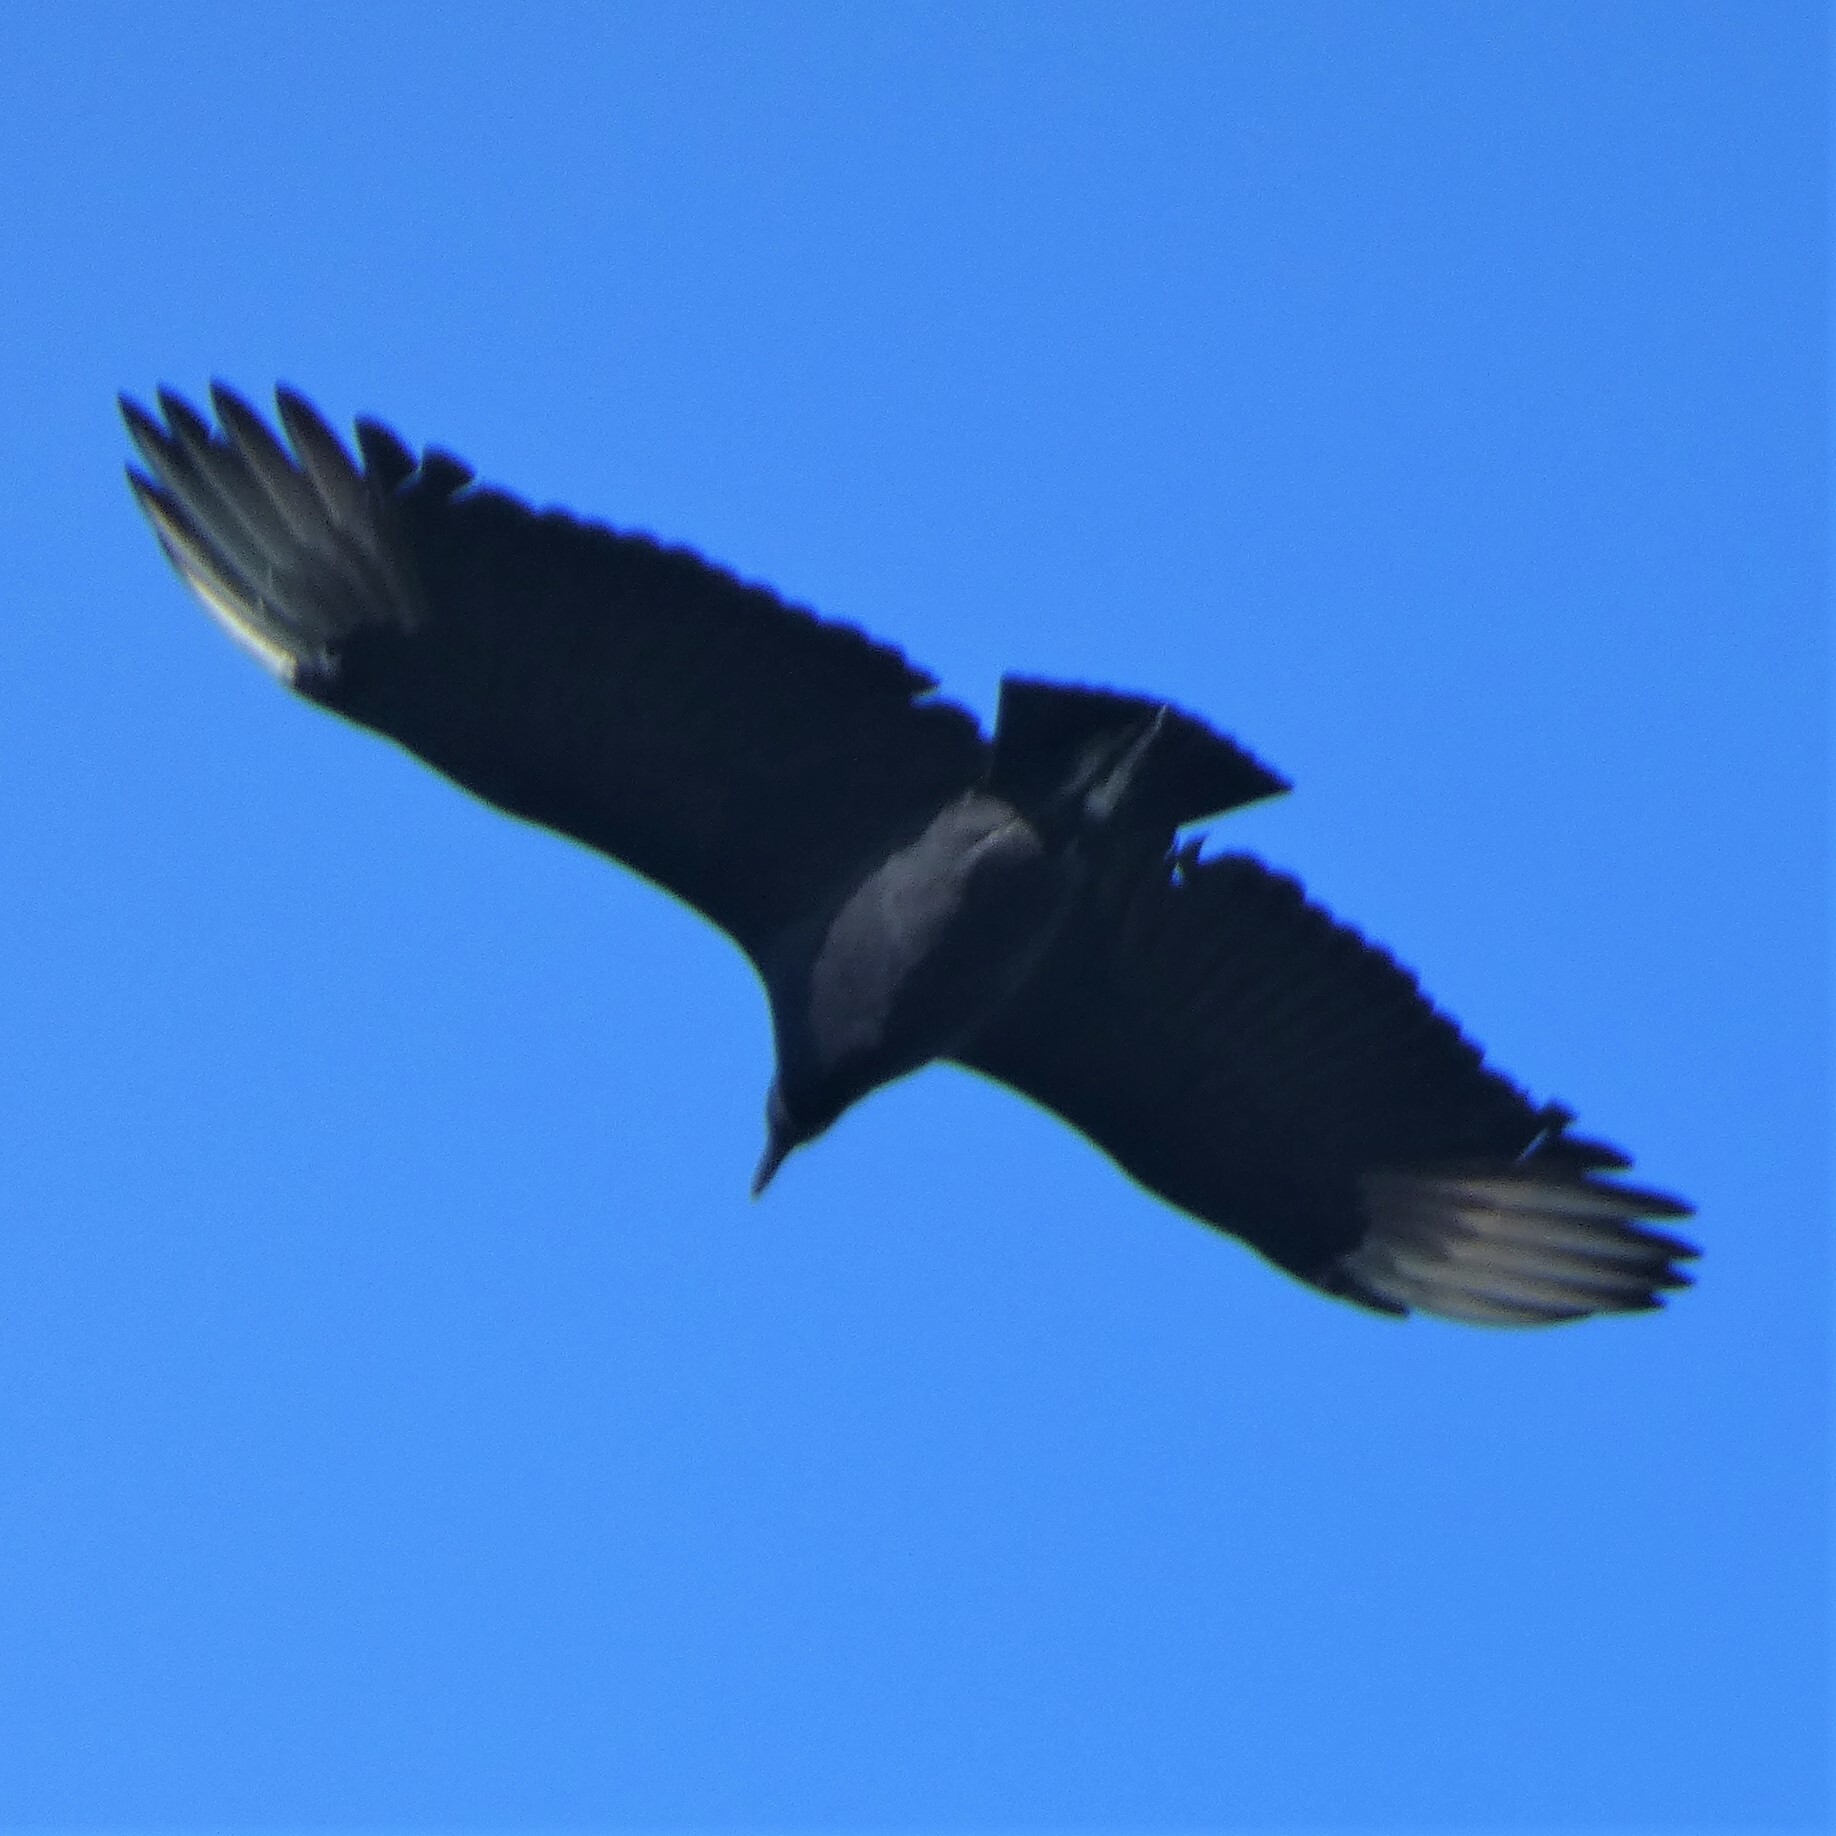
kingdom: Animalia
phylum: Chordata
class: Aves
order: Accipitriformes
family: Cathartidae
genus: Coragyps
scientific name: Coragyps atratus
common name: Black vulture
